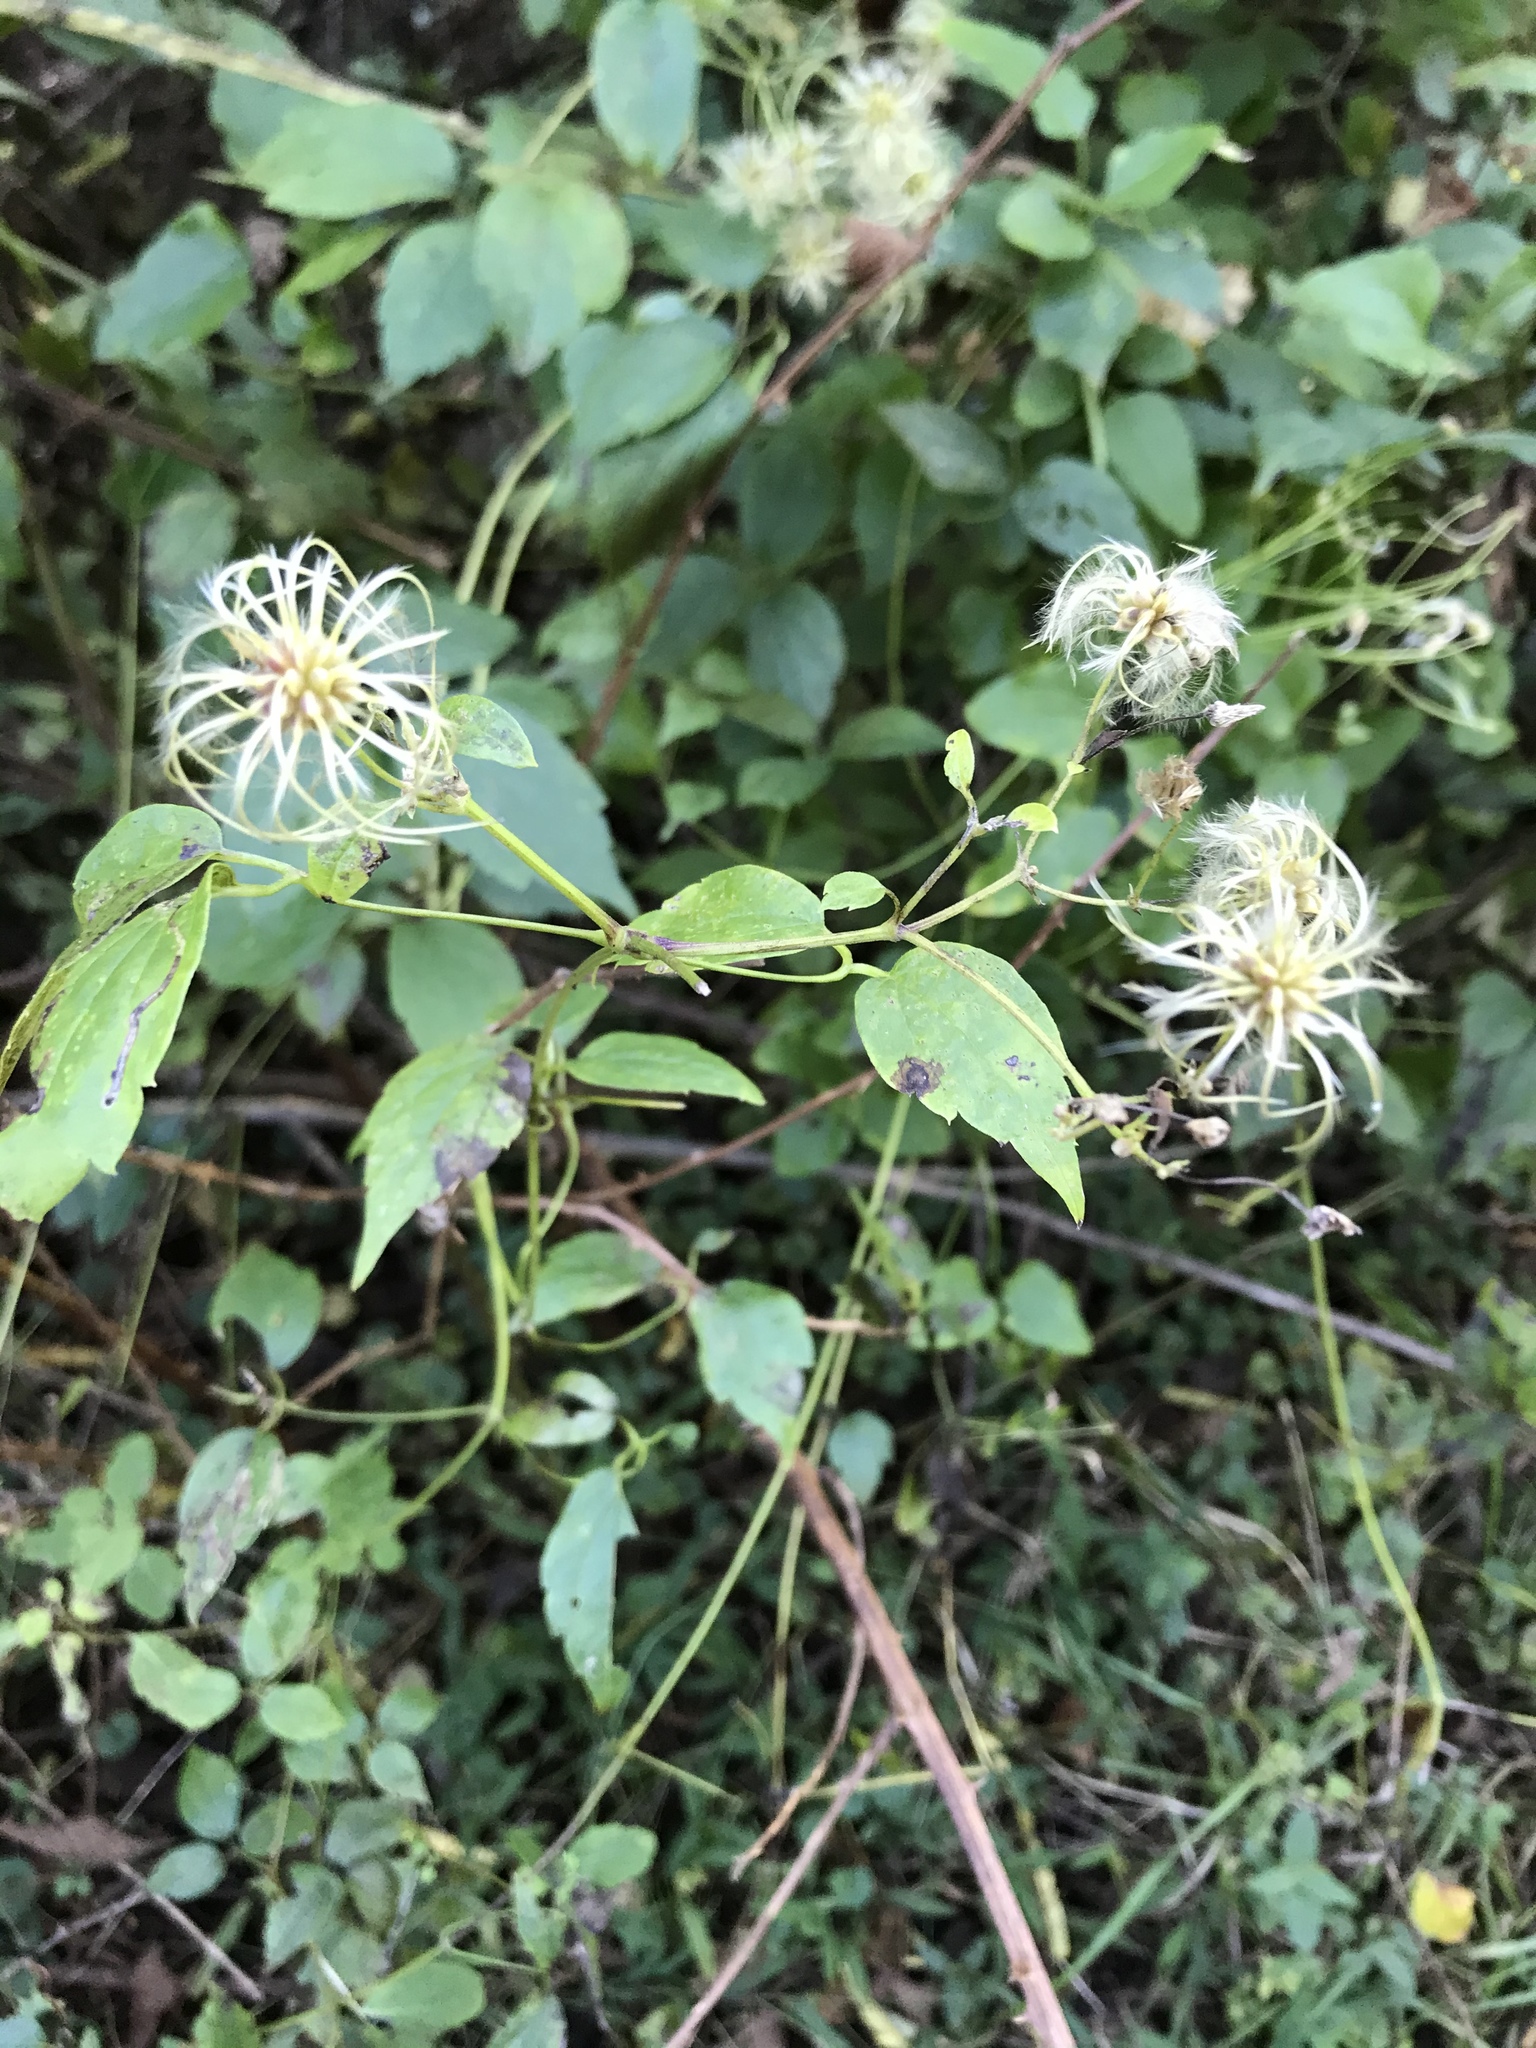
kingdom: Plantae
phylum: Tracheophyta
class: Magnoliopsida
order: Ranunculales
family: Ranunculaceae
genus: Clematis
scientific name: Clematis virginiana
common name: Virgin's-bower
